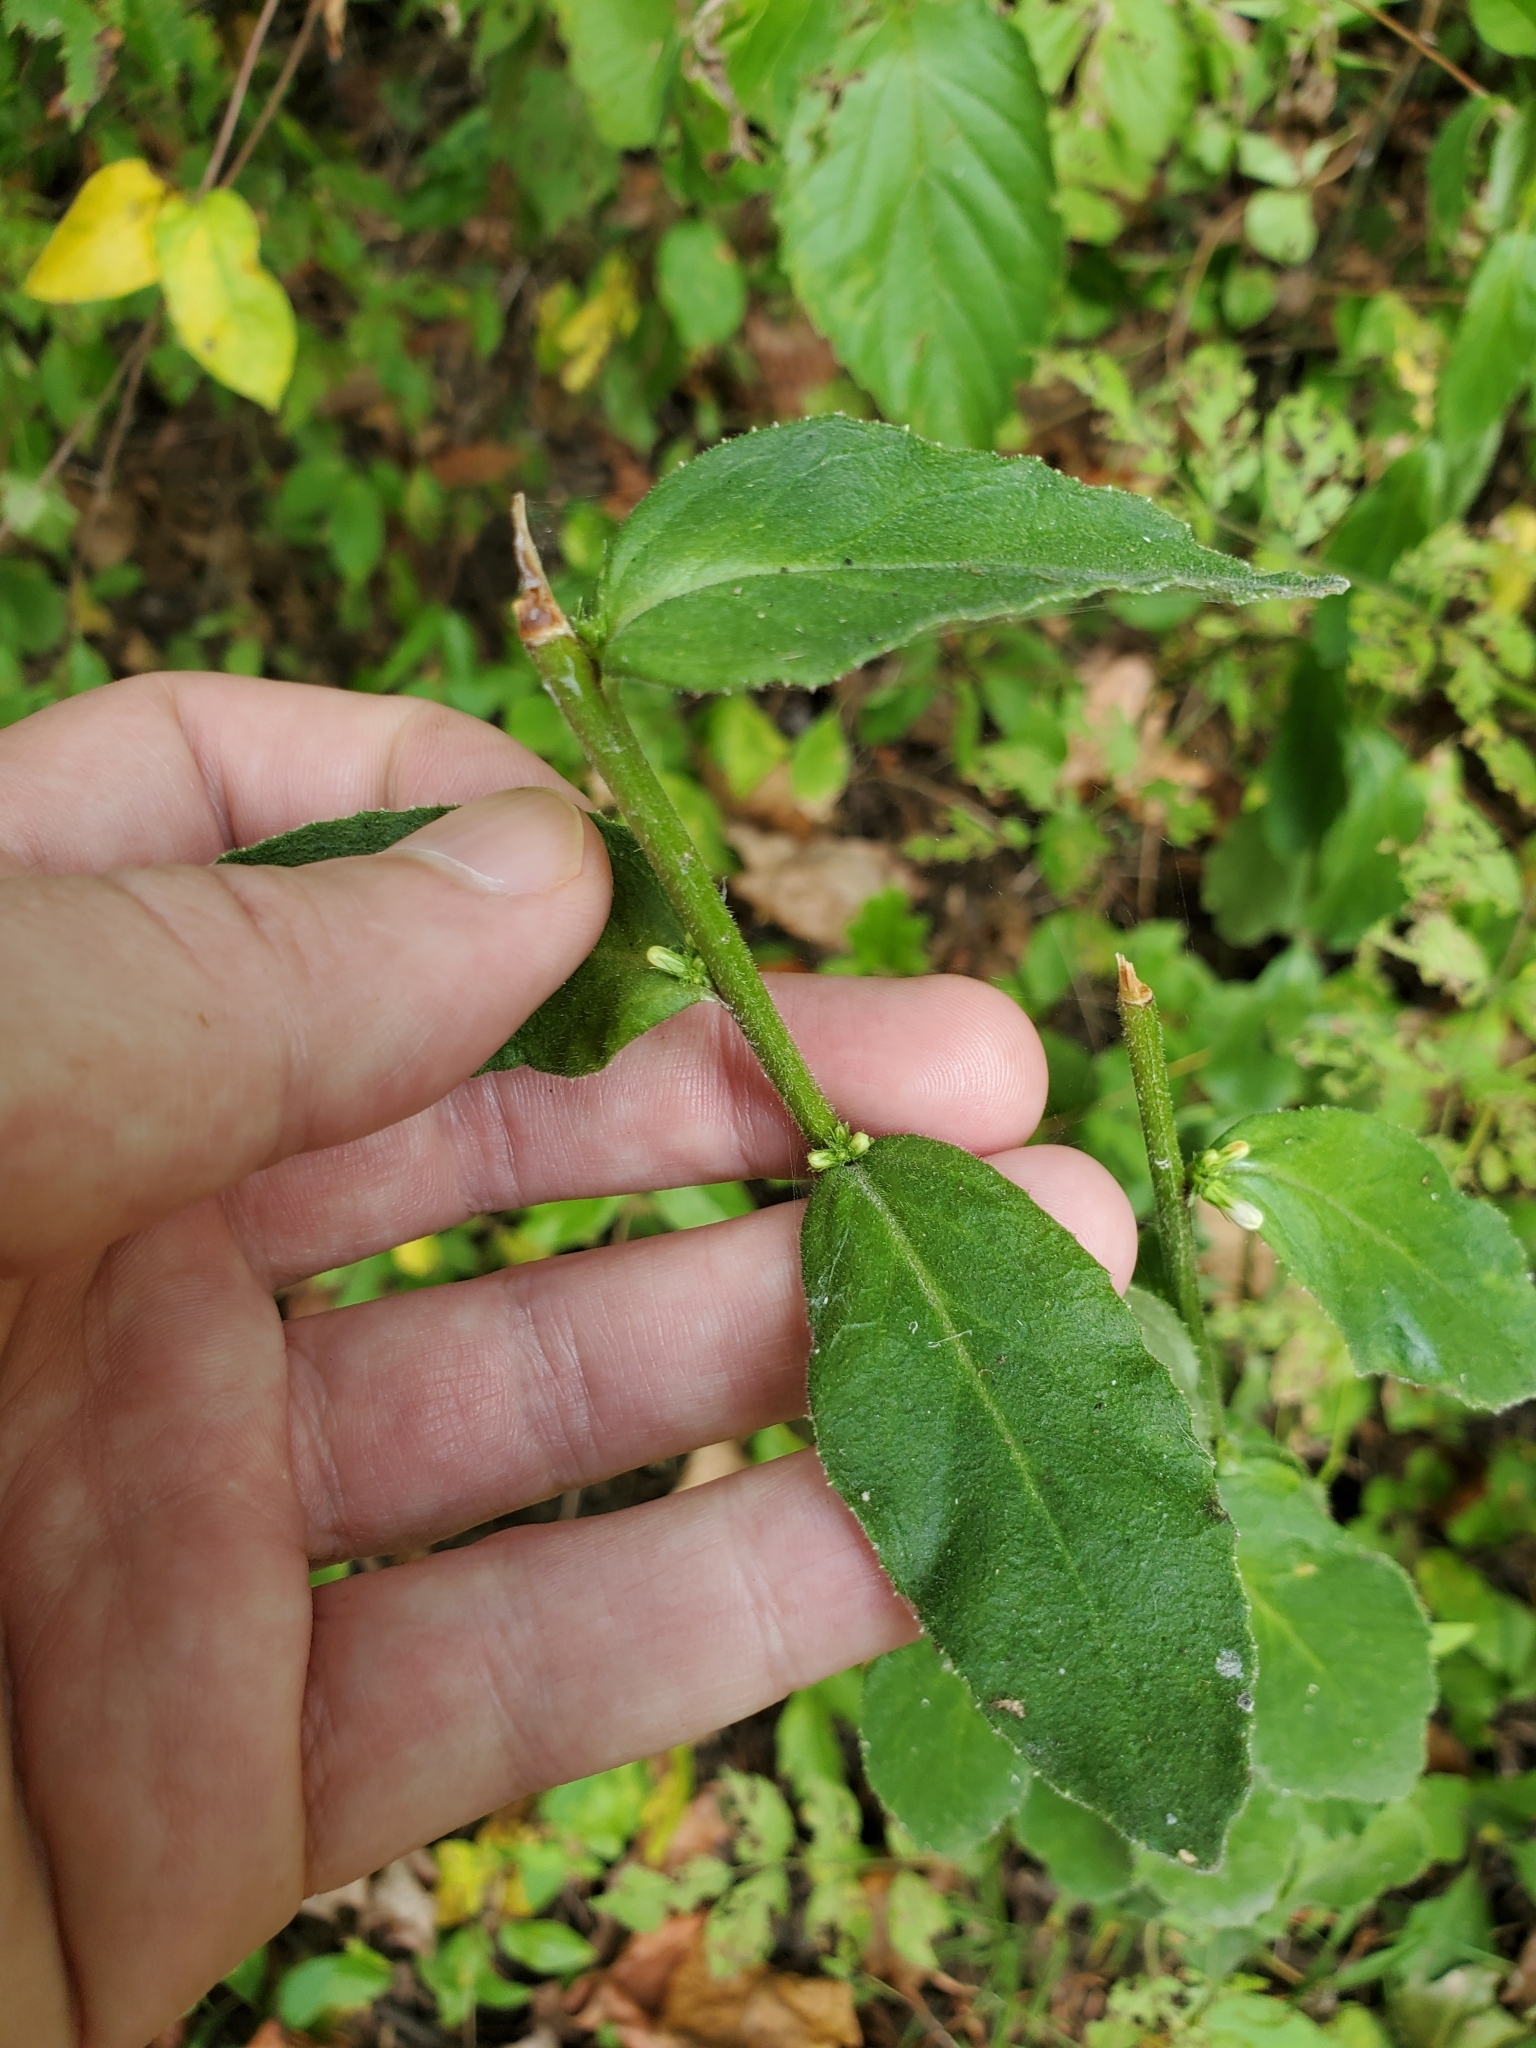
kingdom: Plantae
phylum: Tracheophyta
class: Magnoliopsida
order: Asterales
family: Campanulaceae
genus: Lobelia
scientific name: Lobelia puberula
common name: Purple dewdrop
